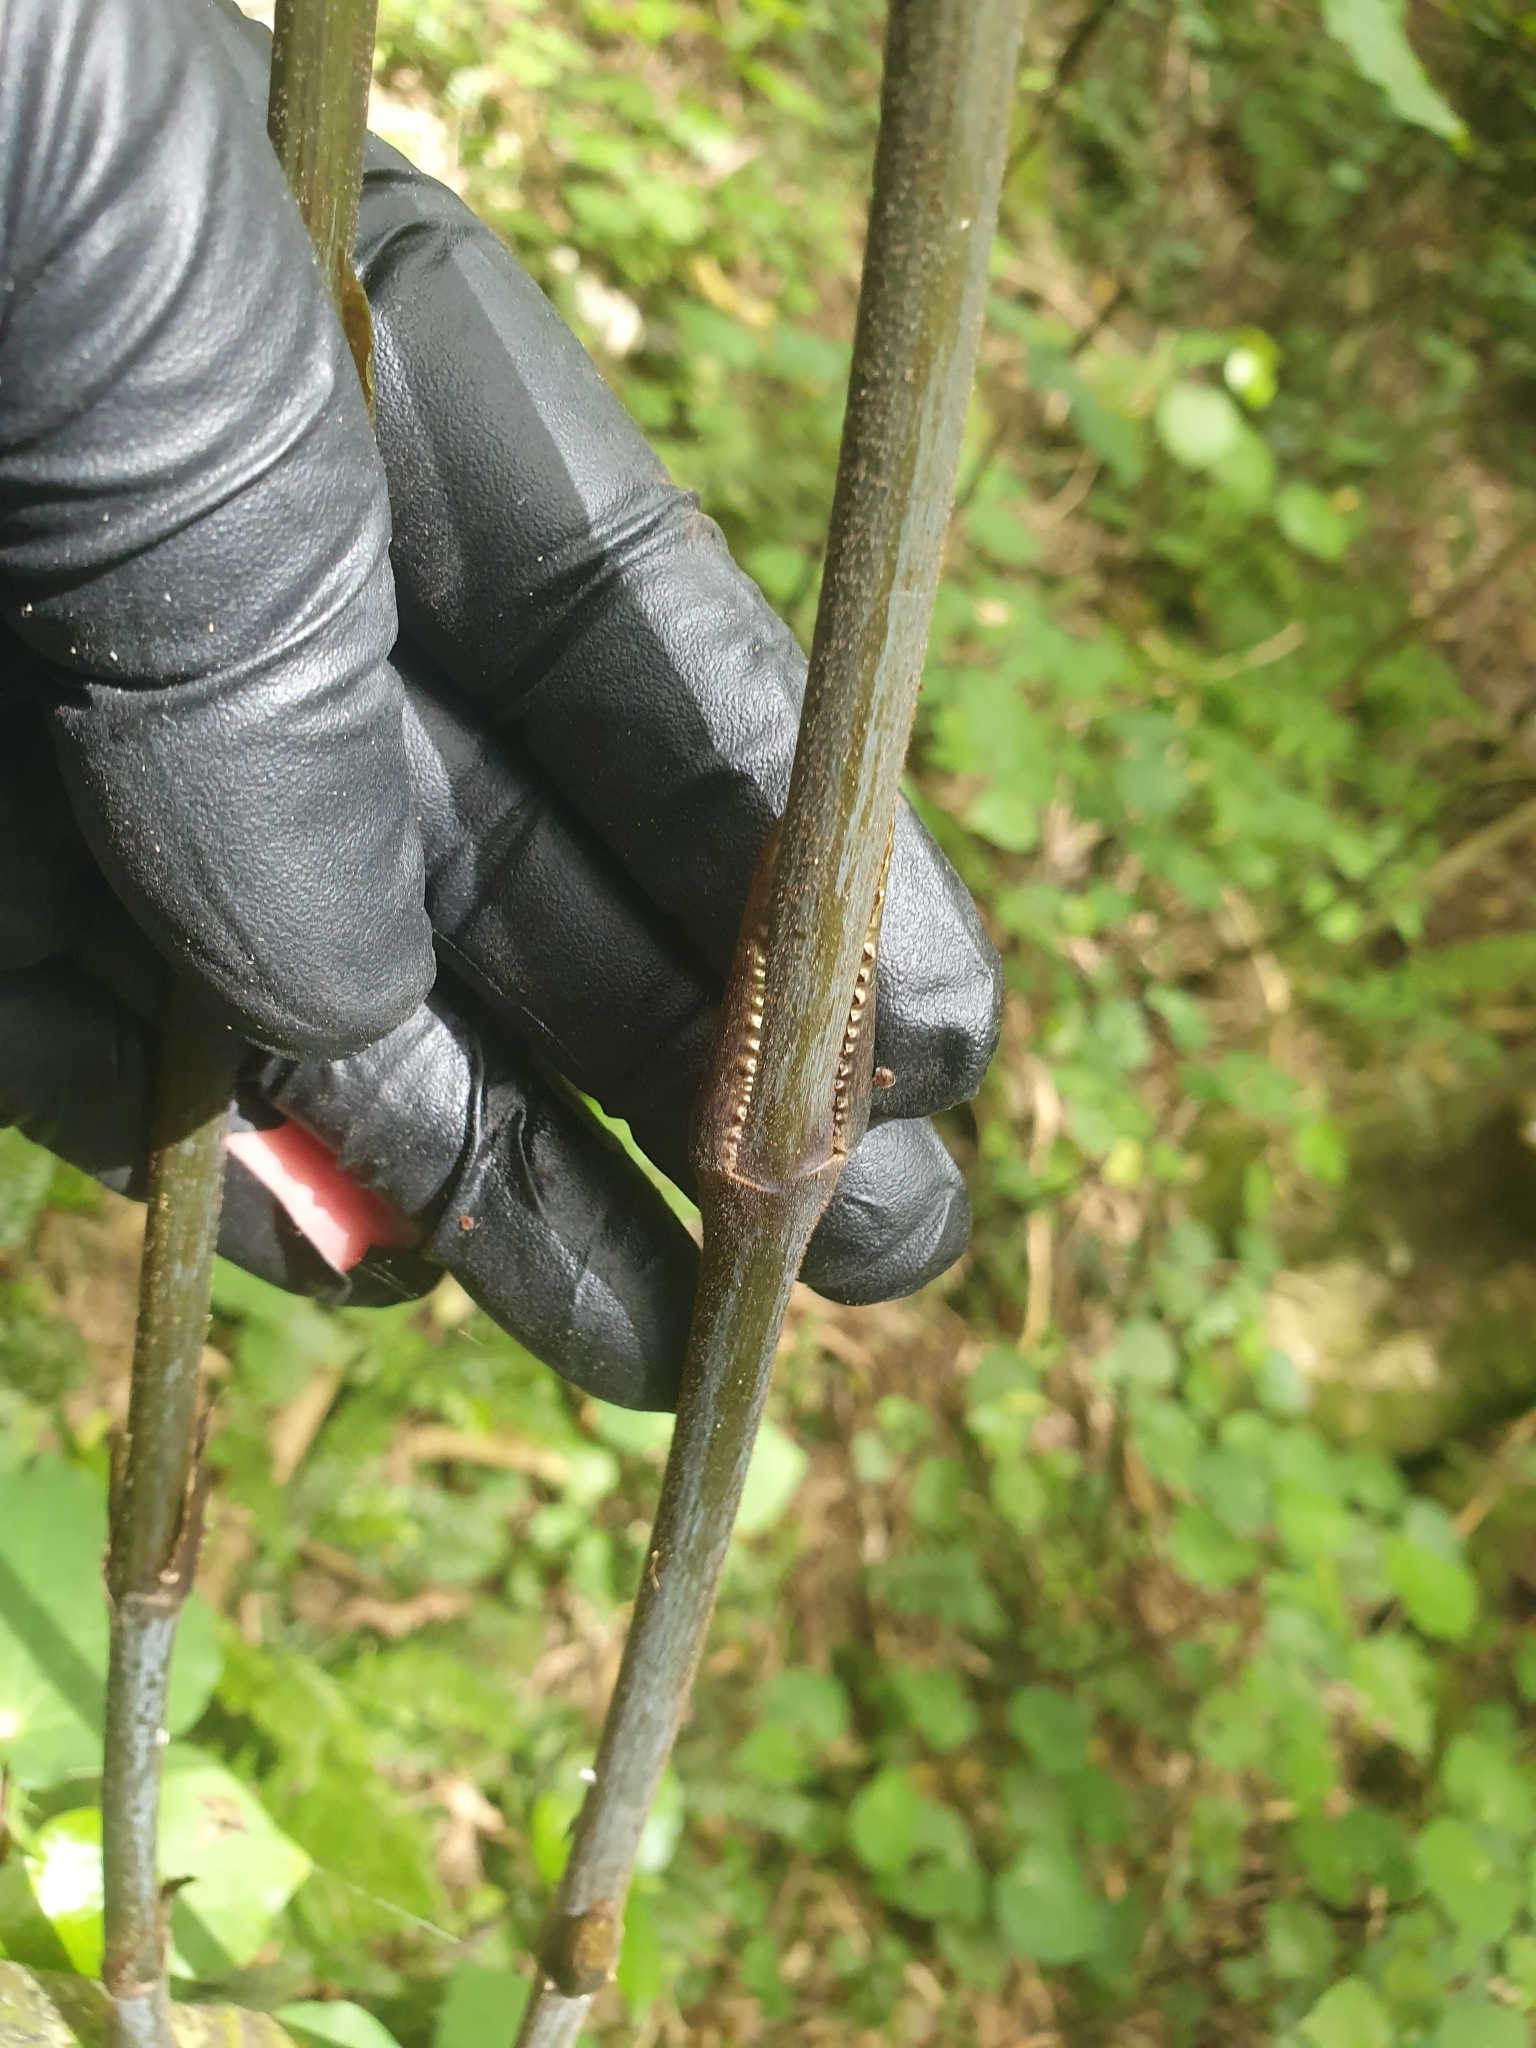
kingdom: Plantae
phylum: Tracheophyta
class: Liliopsida
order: Liliales
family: Ripogonaceae
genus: Ripogonum
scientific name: Ripogonum scandens
